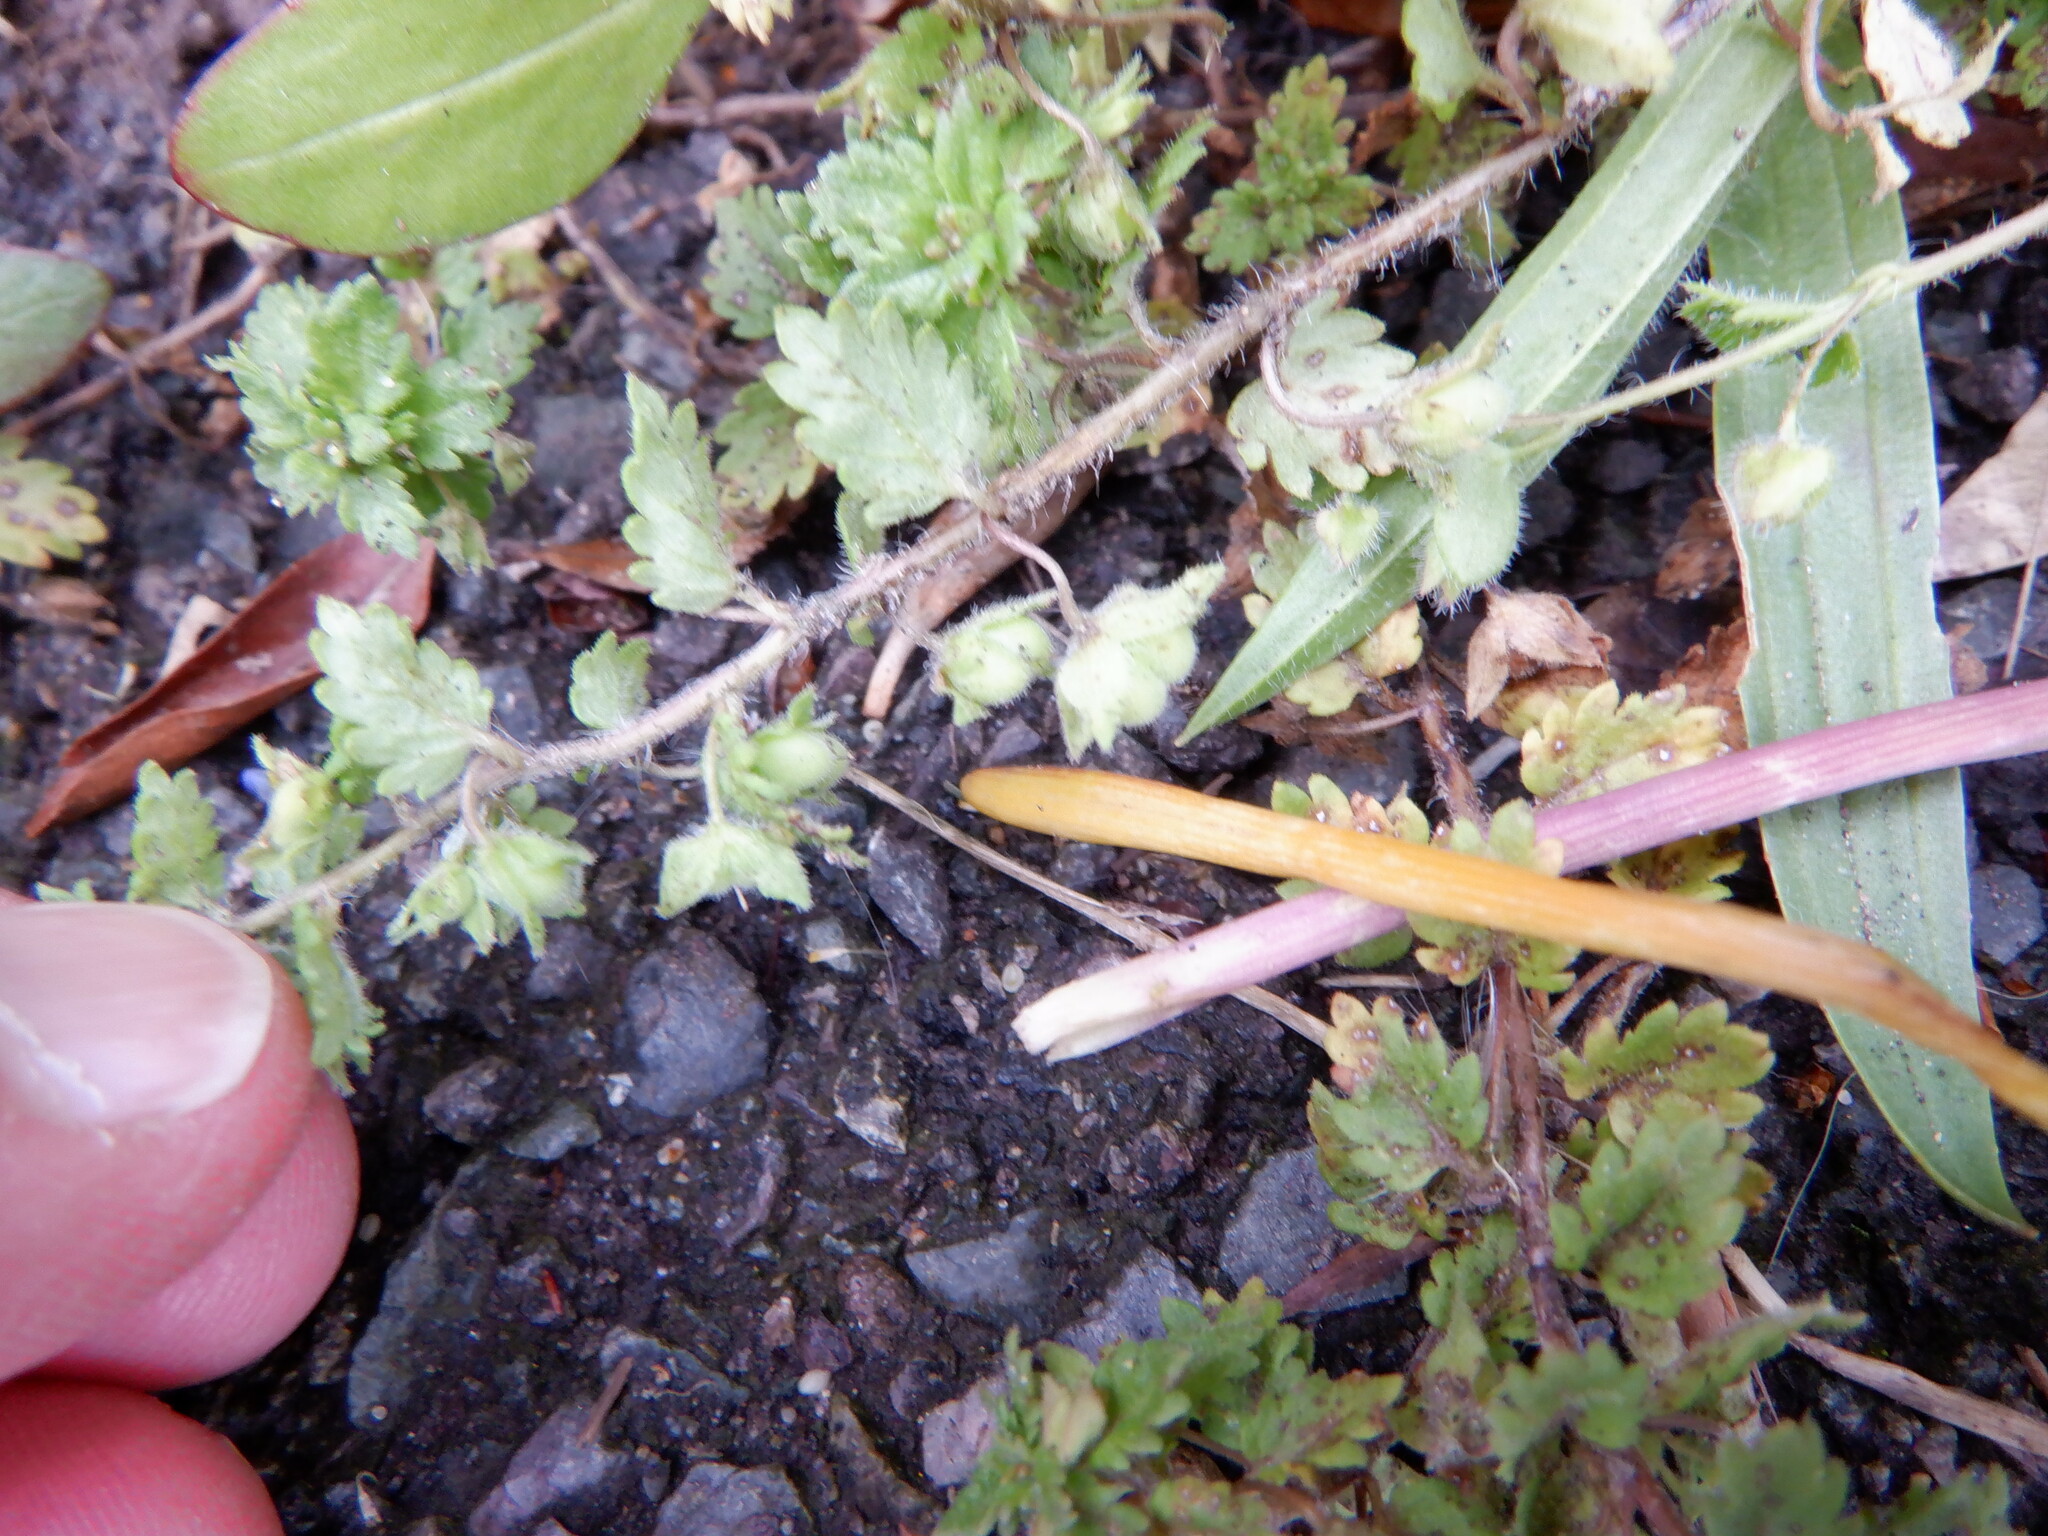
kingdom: Plantae
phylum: Tracheophyta
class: Magnoliopsida
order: Lamiales
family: Plantaginaceae
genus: Veronica
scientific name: Veronica agrestis
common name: Green field-speedwell
